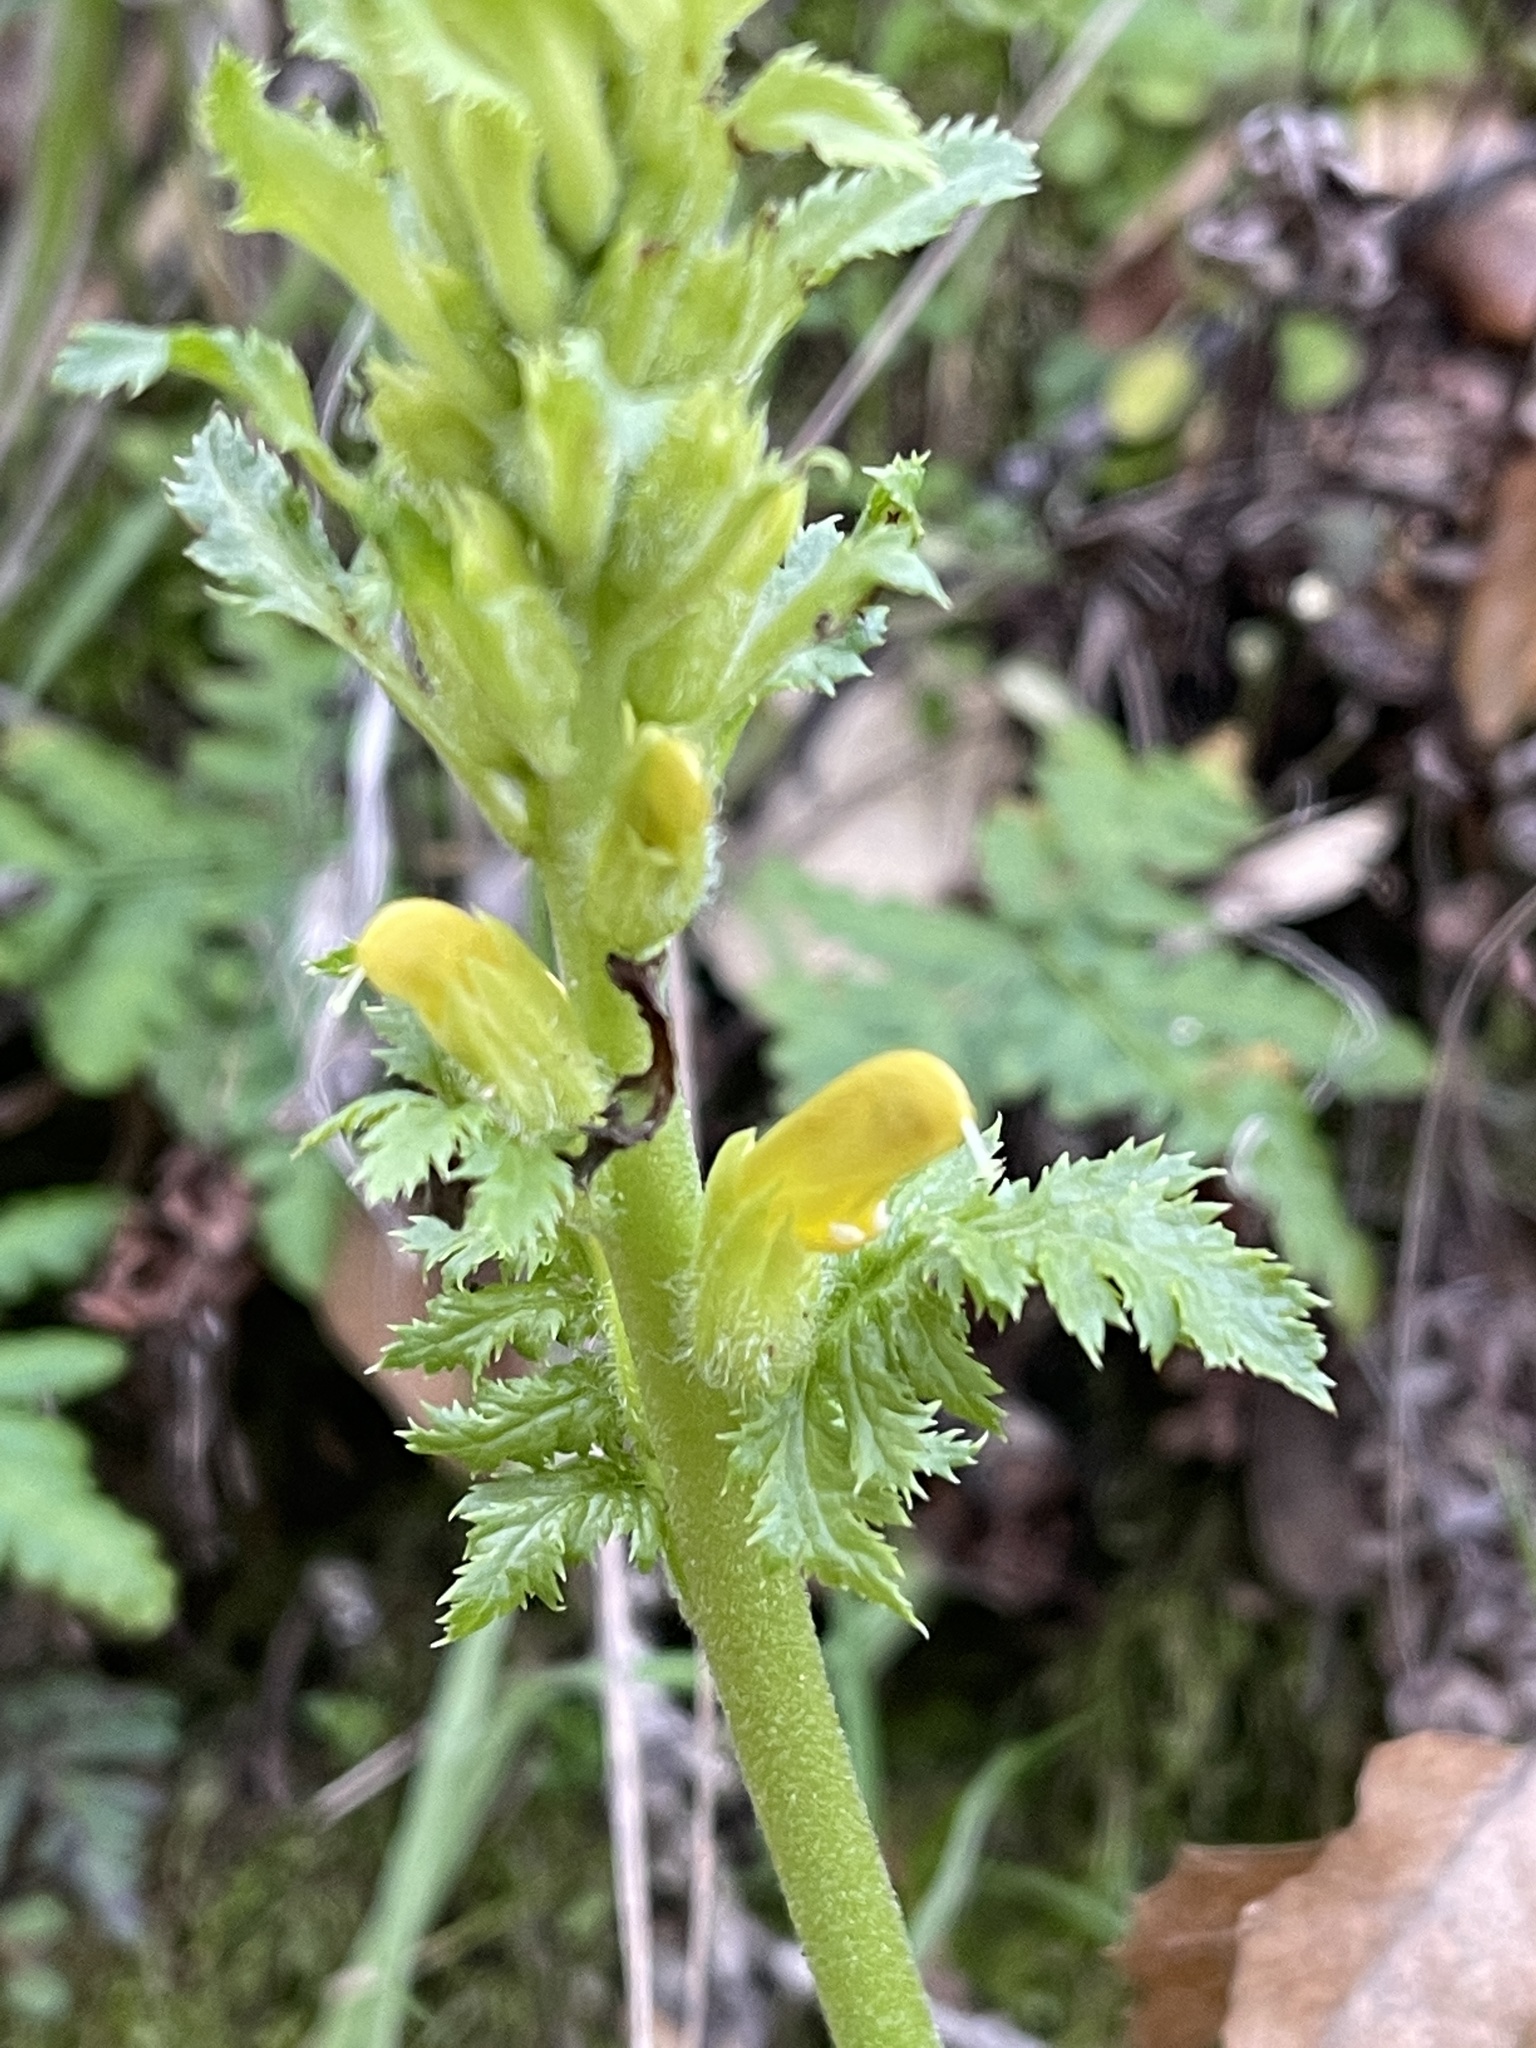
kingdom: Plantae
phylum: Tracheophyta
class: Magnoliopsida
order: Lamiales
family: Orobanchaceae
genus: Pedicularis
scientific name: Pedicularis densiflora
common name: Indian warrior
